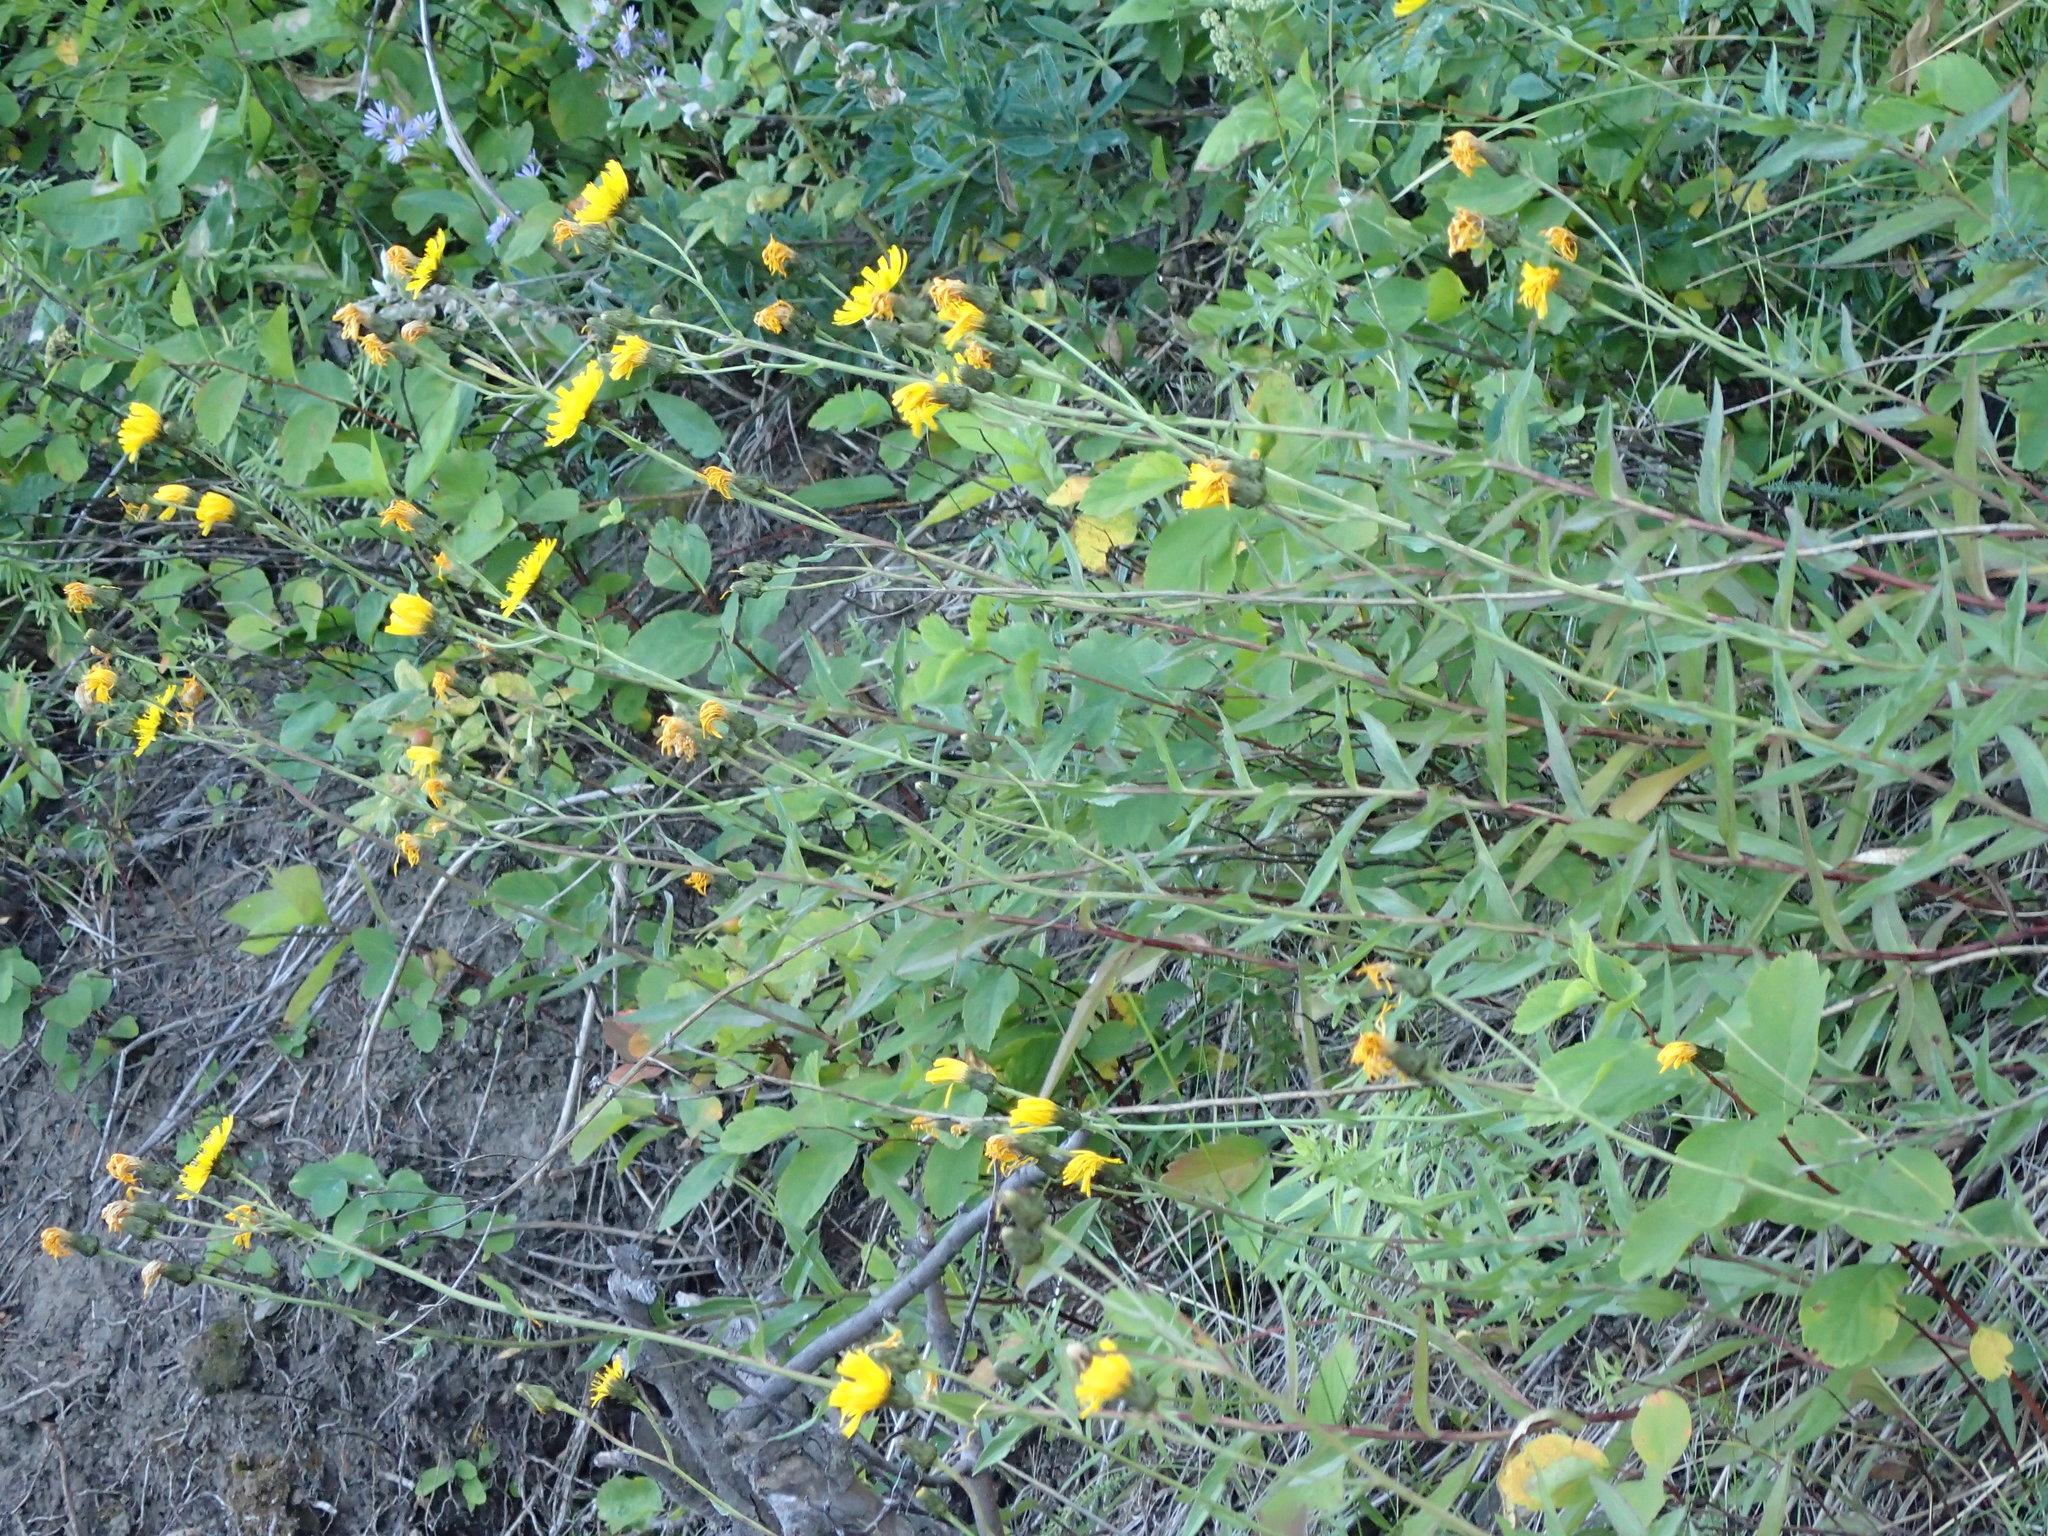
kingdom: Plantae
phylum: Tracheophyta
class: Magnoliopsida
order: Asterales
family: Asteraceae
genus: Hieracium
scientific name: Hieracium umbellatum
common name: Northern hawkweed
